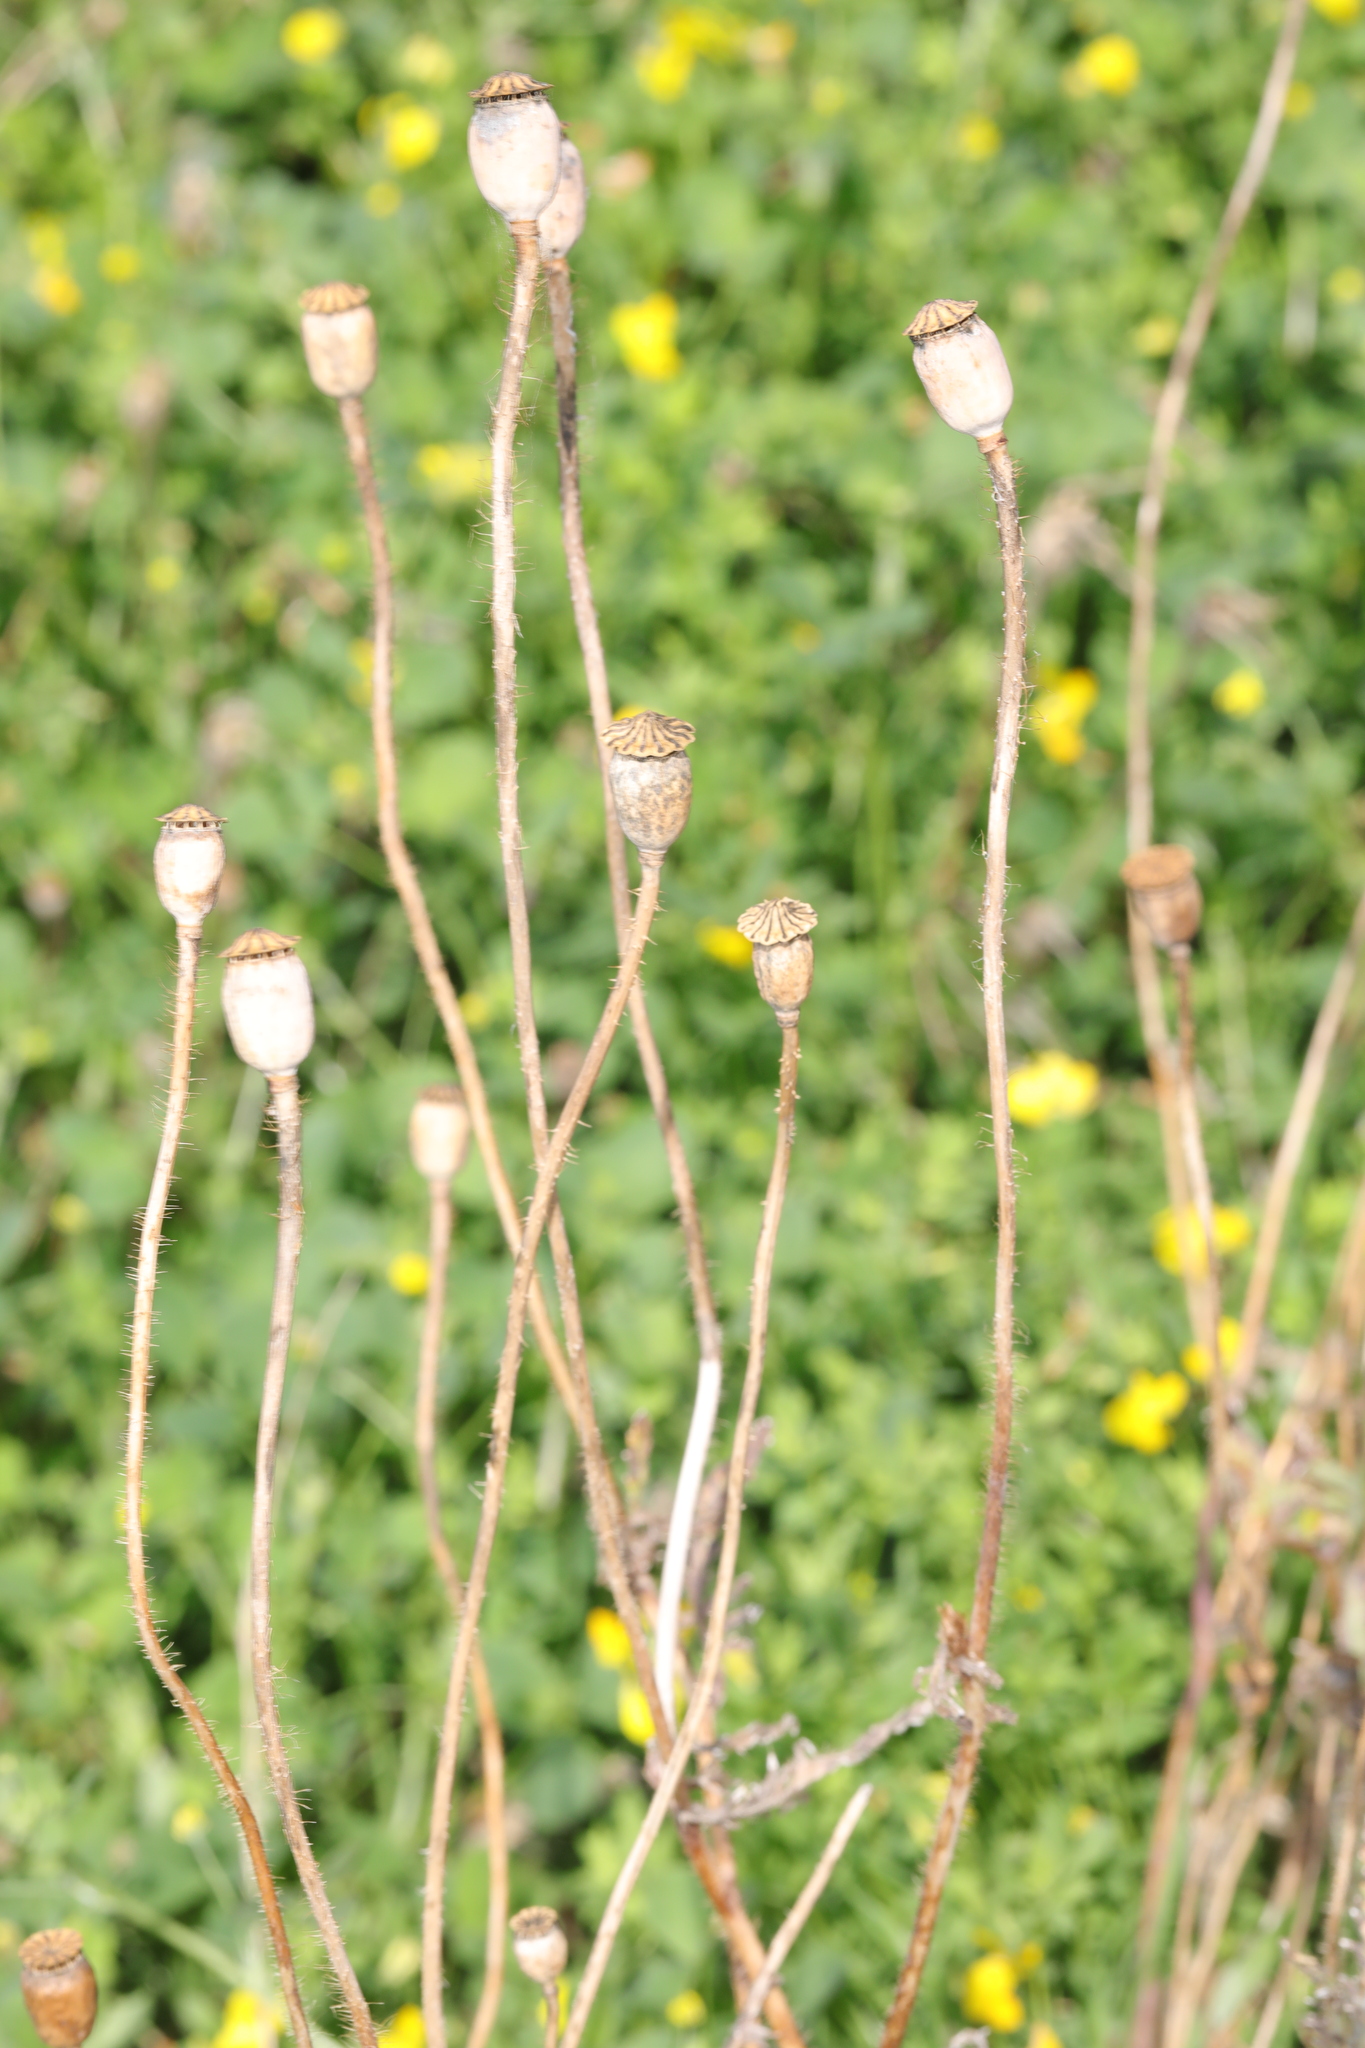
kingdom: Plantae
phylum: Tracheophyta
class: Magnoliopsida
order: Ranunculales
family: Papaveraceae
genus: Papaver
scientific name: Papaver rhoeas
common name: Corn poppy
